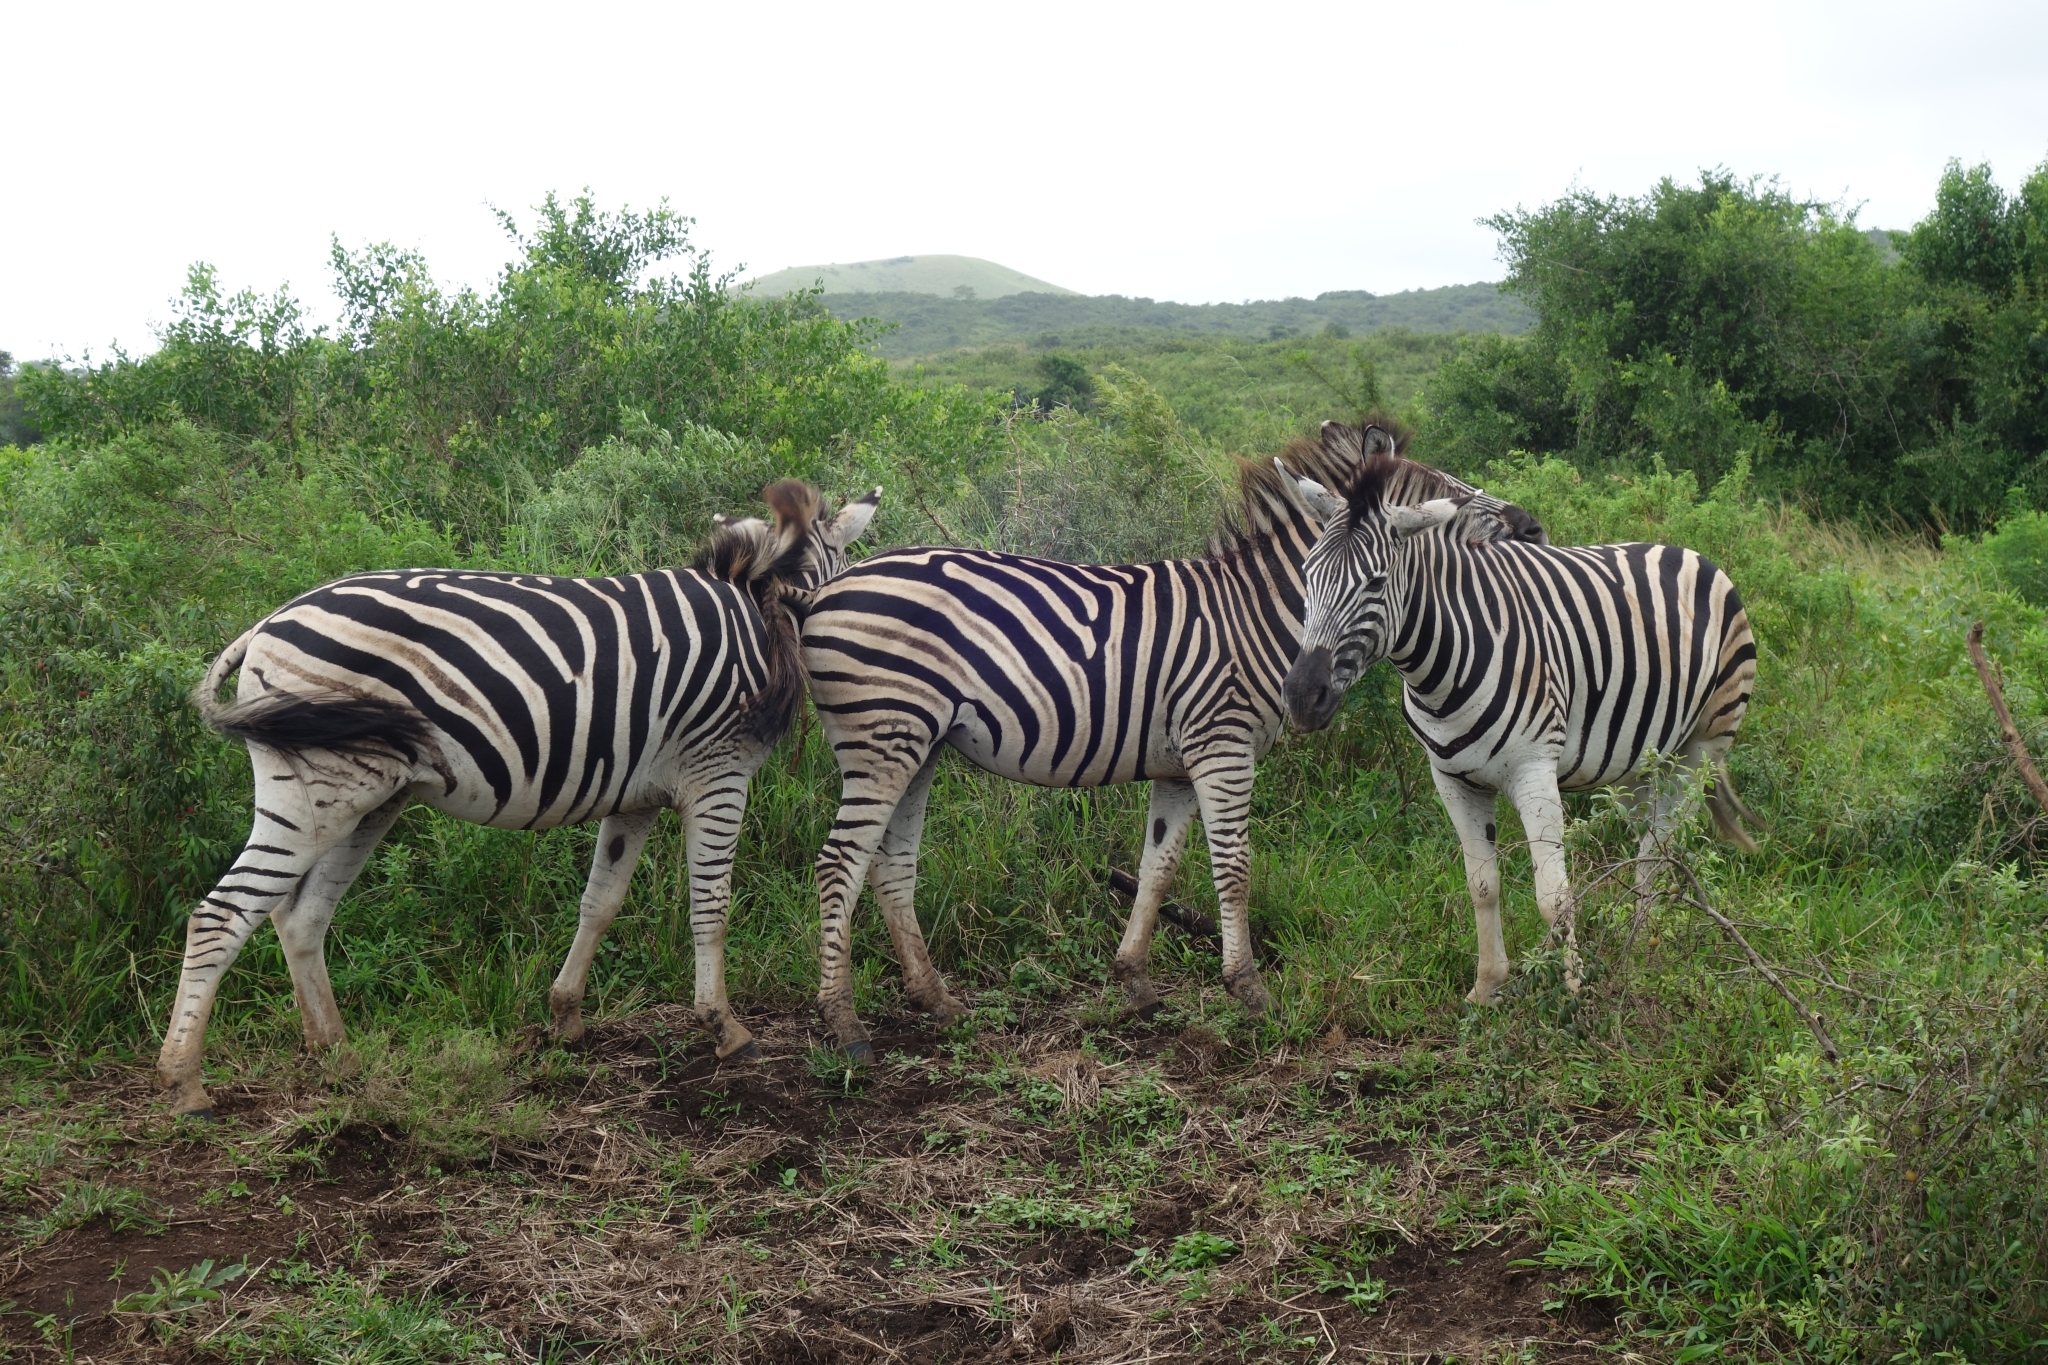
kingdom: Animalia
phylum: Chordata
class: Mammalia
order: Perissodactyla
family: Equidae
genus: Equus
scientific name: Equus quagga
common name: Plains zebra
